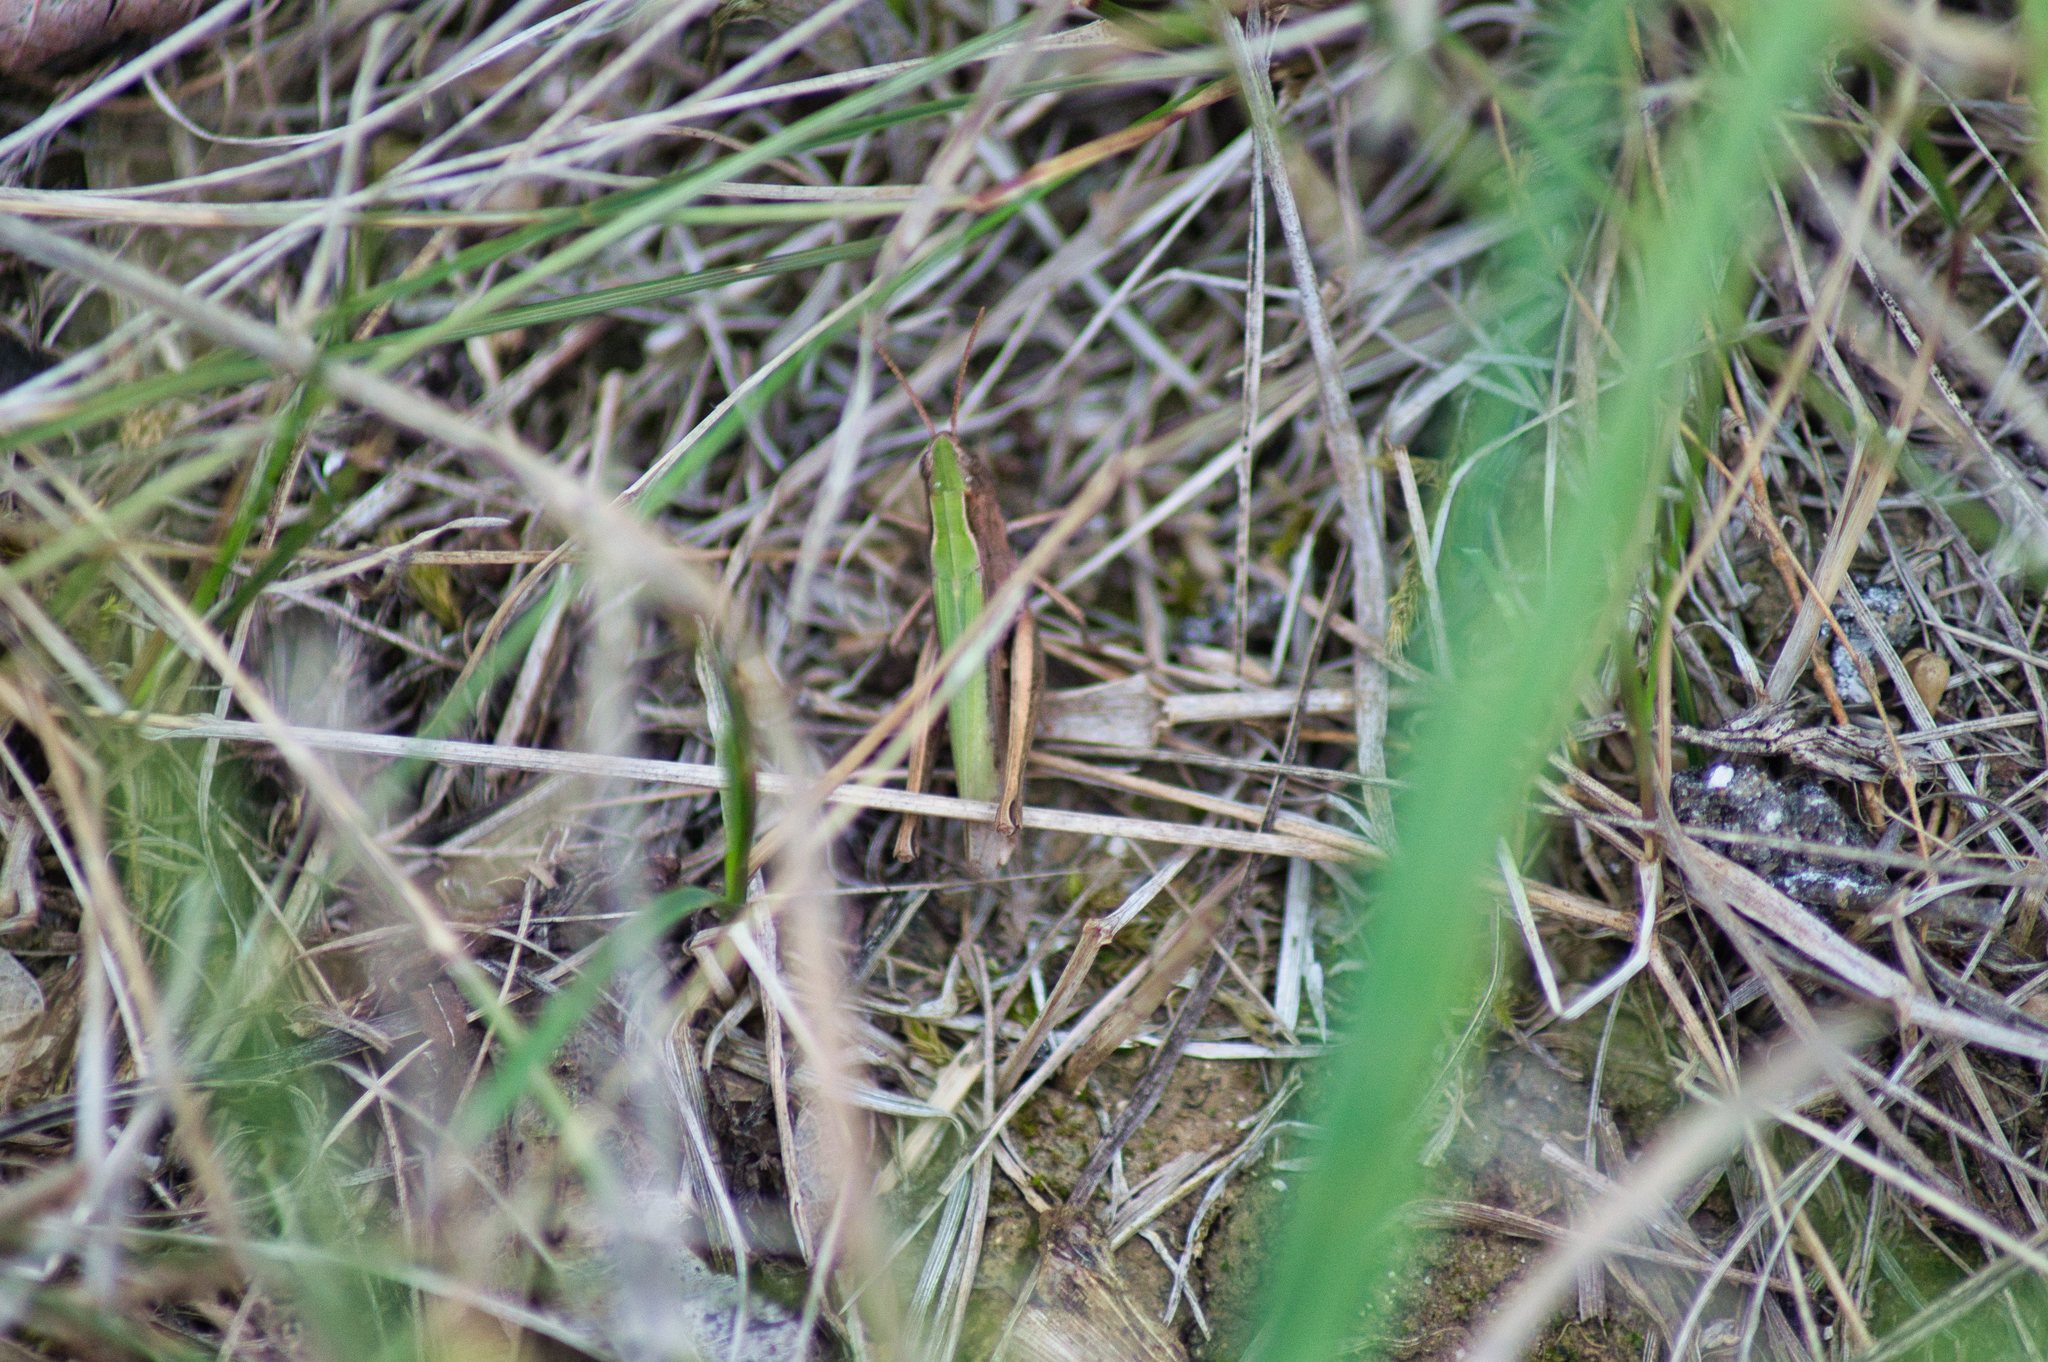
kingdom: Animalia
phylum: Arthropoda
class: Insecta
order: Orthoptera
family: Acrididae
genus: Chorthippus
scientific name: Chorthippus dorsatus
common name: Steppe grasshopper
